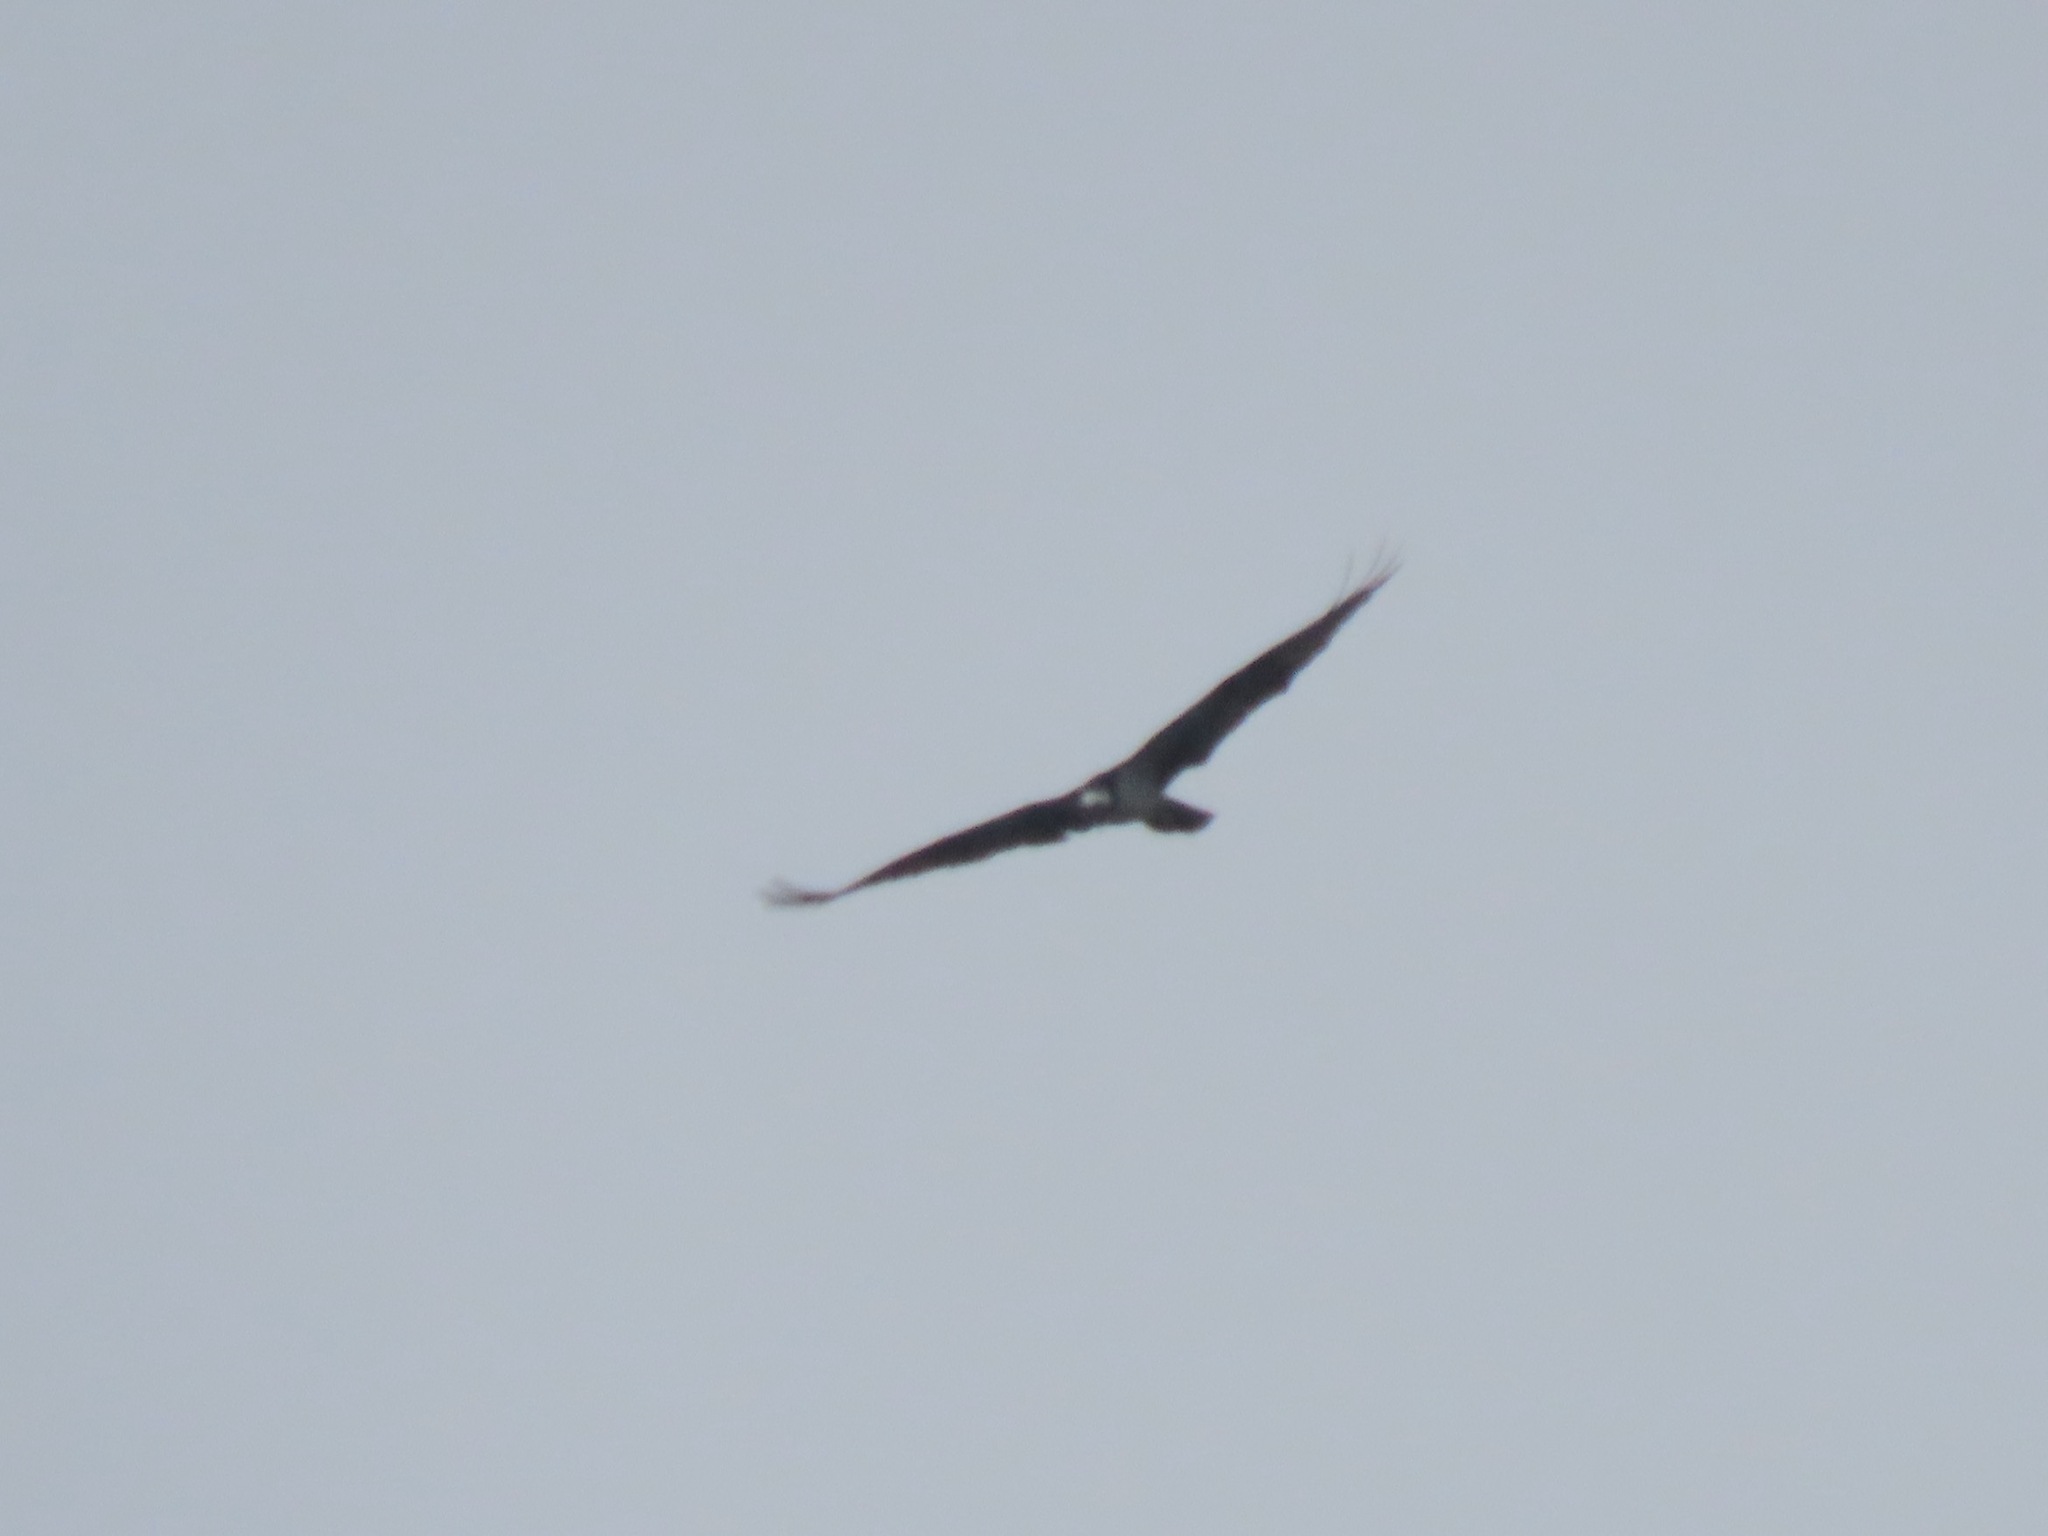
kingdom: Animalia
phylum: Chordata
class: Aves
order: Accipitriformes
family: Pandionidae
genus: Pandion
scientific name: Pandion haliaetus
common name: Osprey
